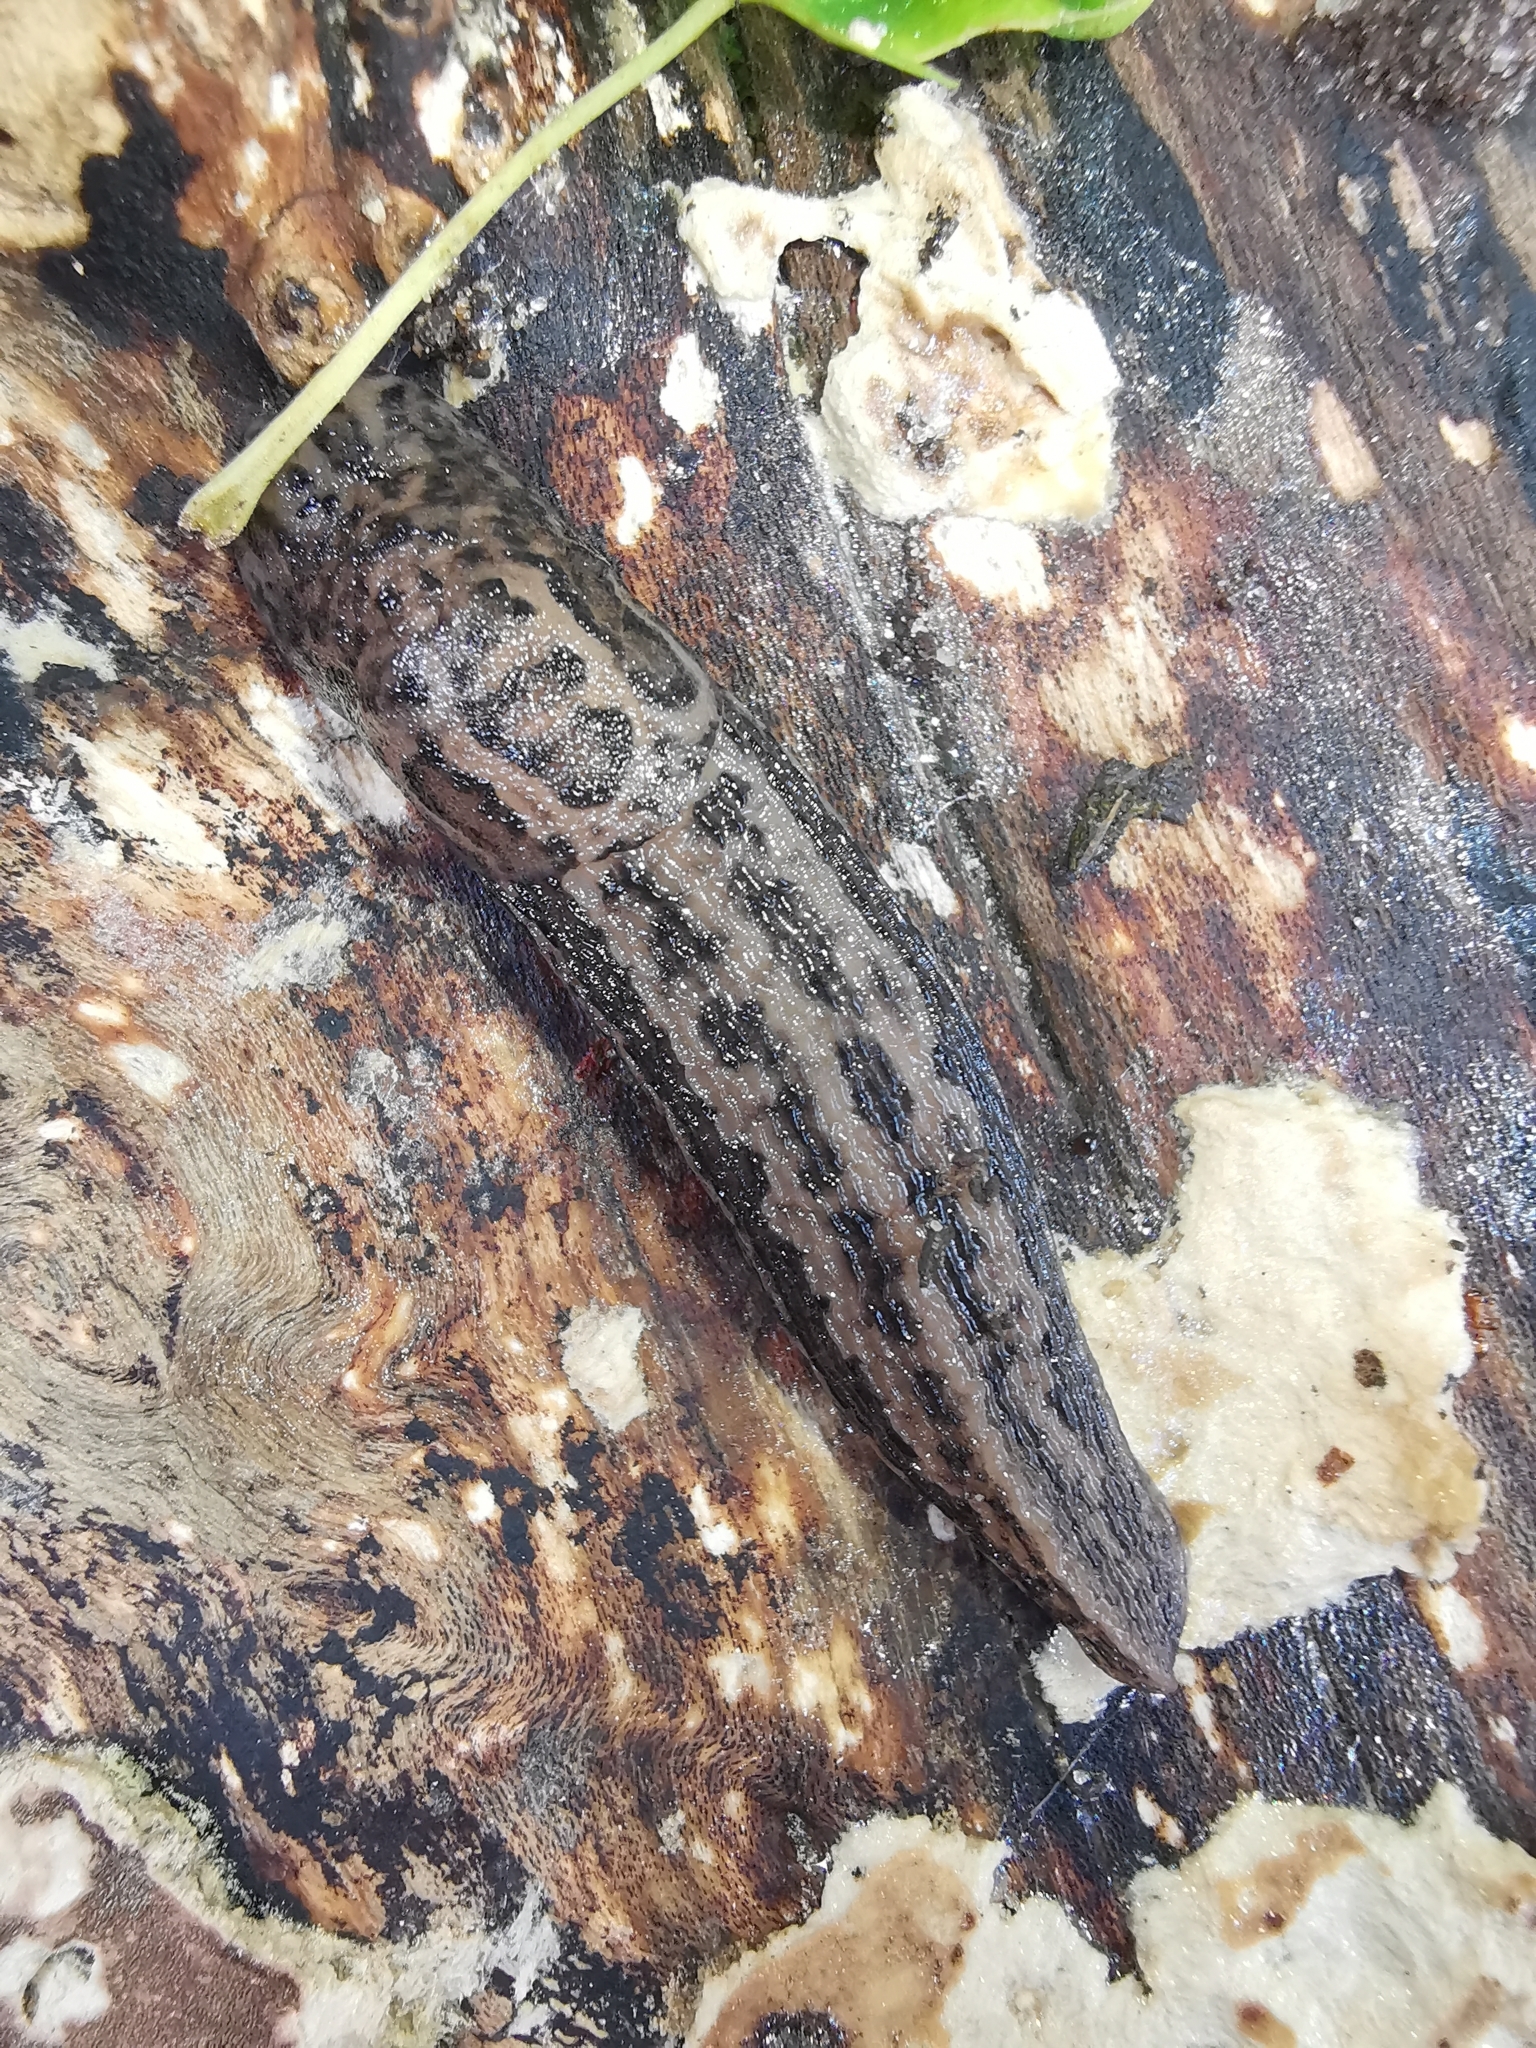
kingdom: Animalia
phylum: Mollusca
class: Gastropoda
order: Stylommatophora
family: Limacidae
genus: Limax
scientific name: Limax maximus
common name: Great grey slug
